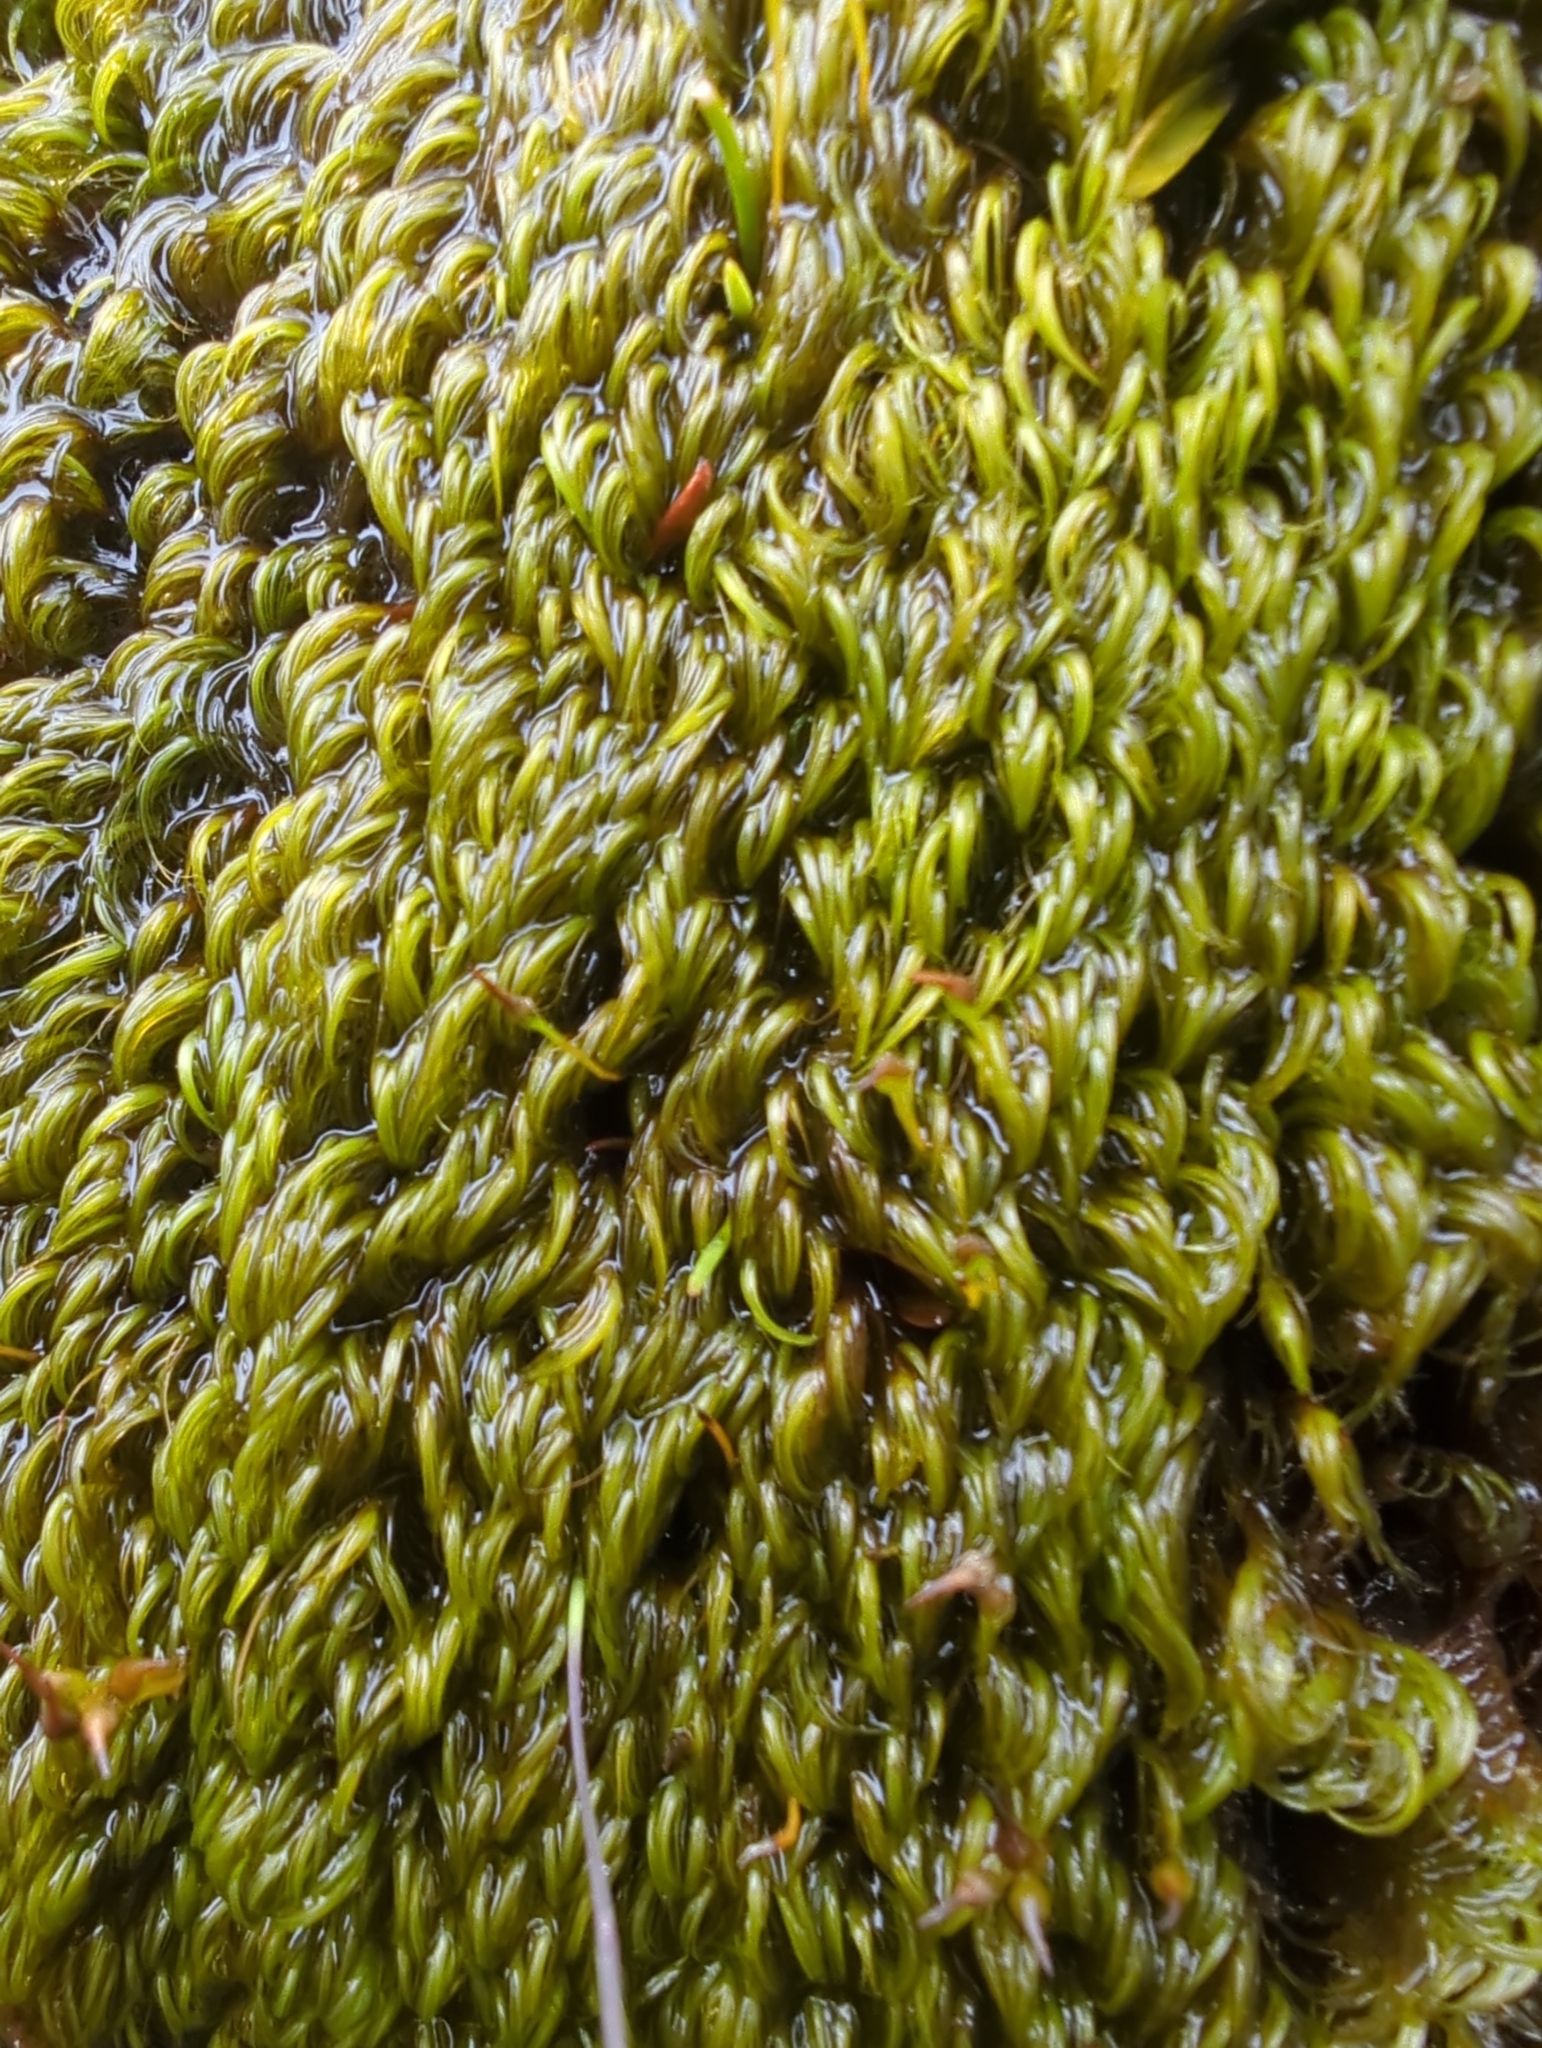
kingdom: Plantae
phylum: Bryophyta
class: Bryopsida
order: Dicranales
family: Rhabdoweisiaceae
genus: Pseudoblindia
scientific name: Pseudoblindia robusta
